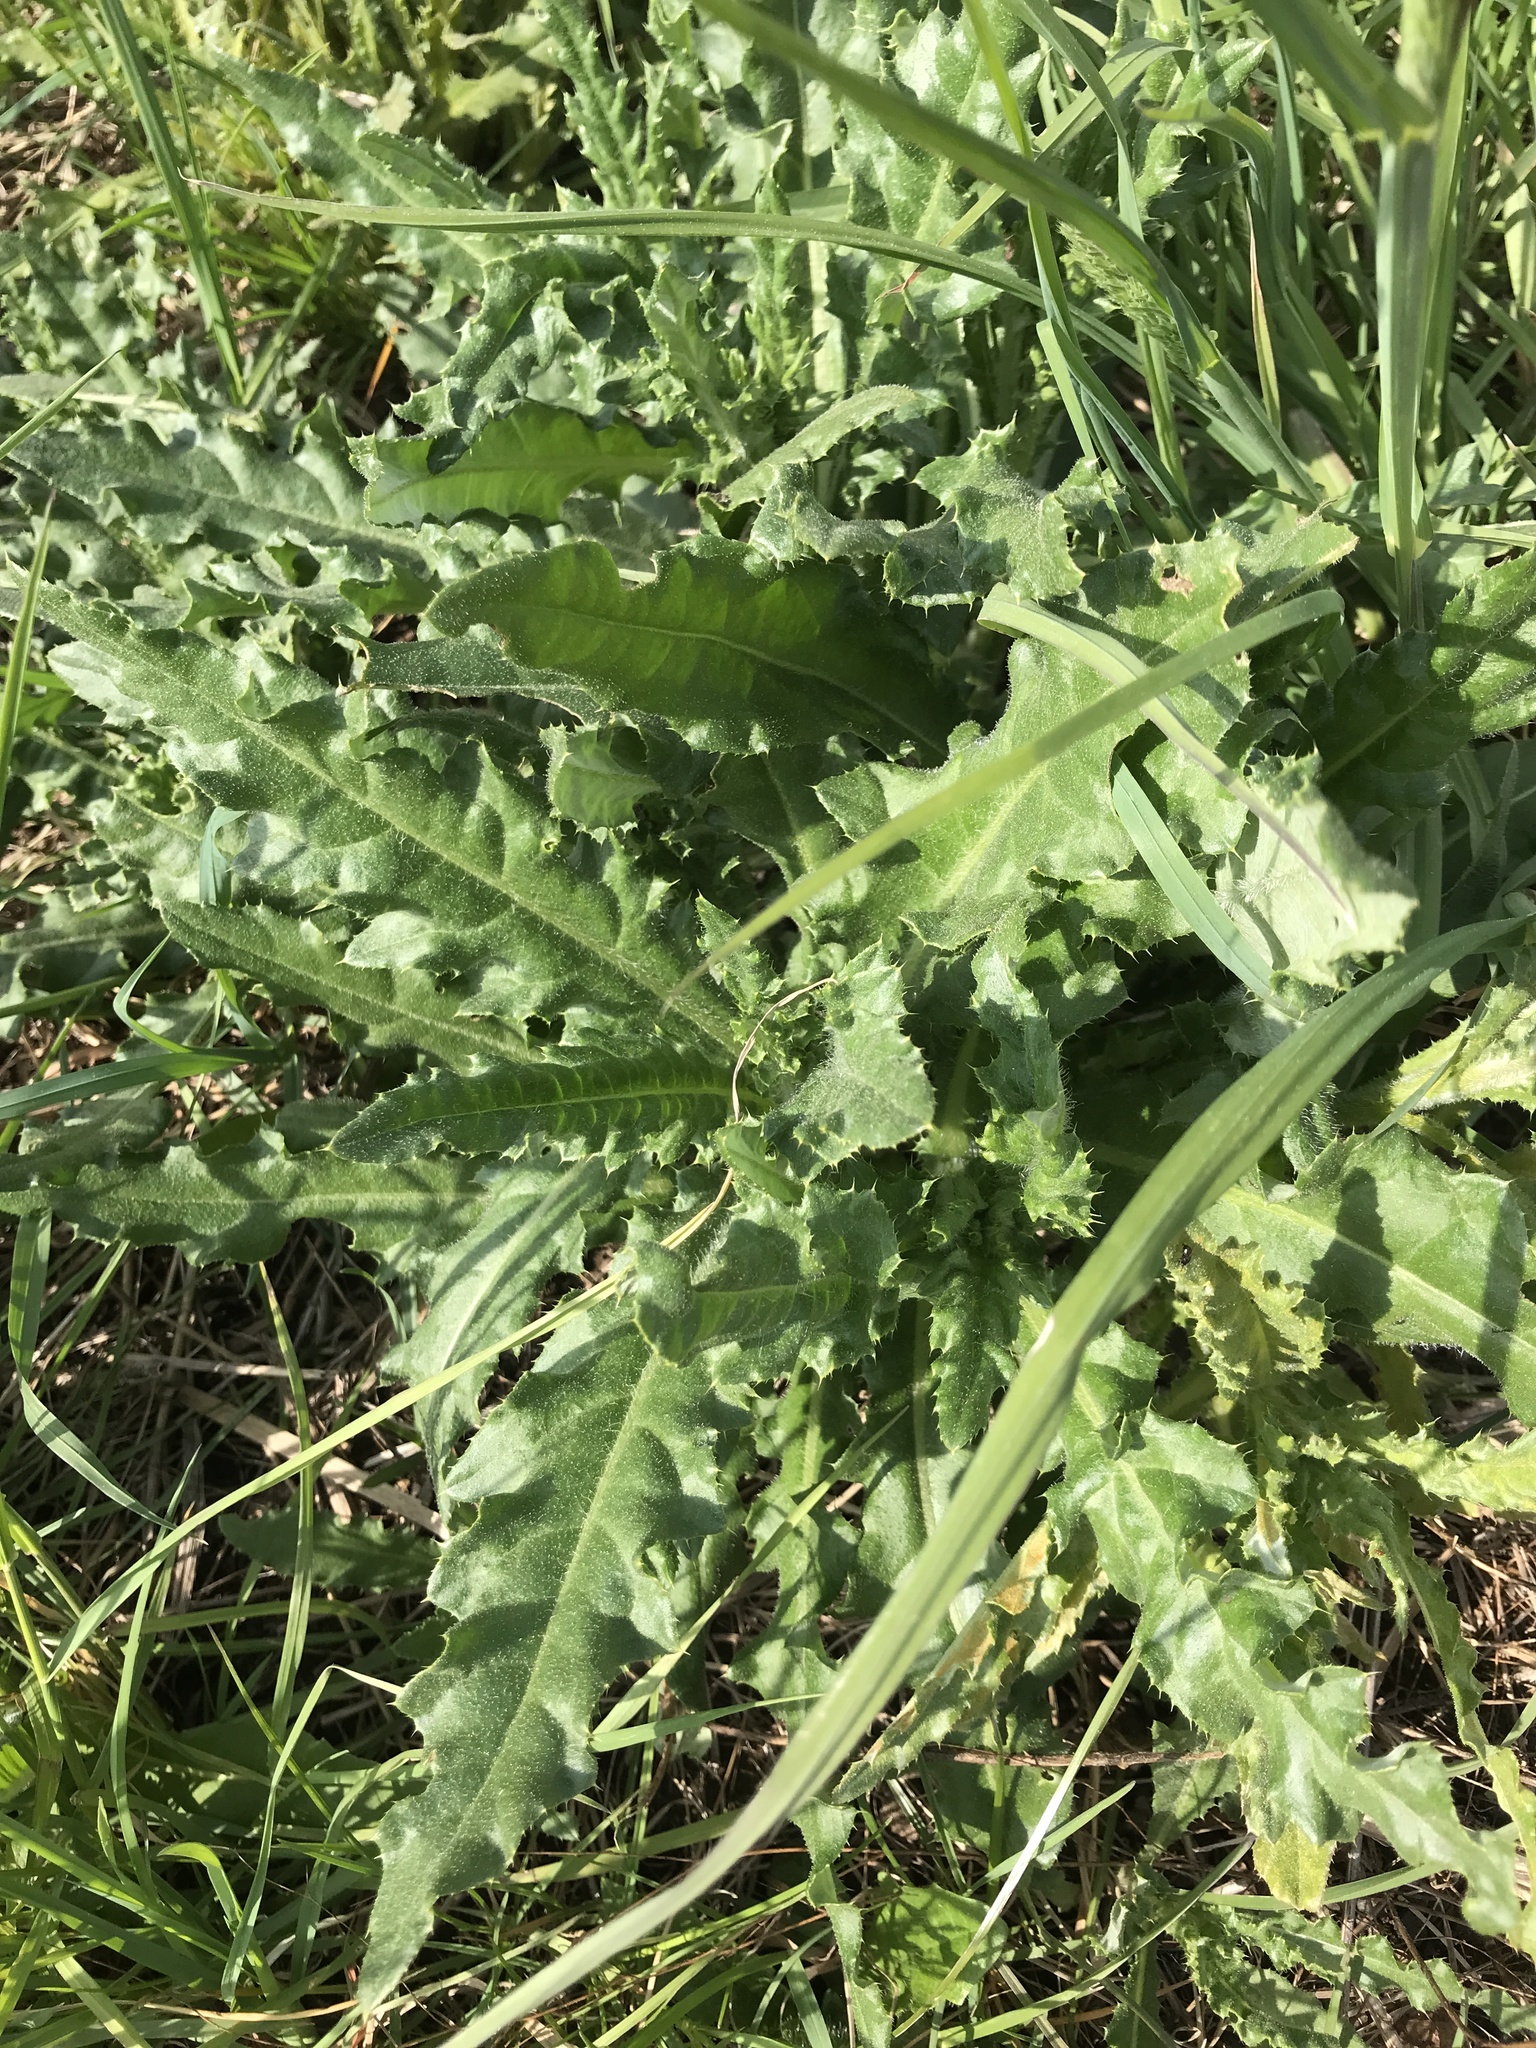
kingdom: Plantae
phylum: Tracheophyta
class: Magnoliopsida
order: Asterales
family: Asteraceae
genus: Cirsium
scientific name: Cirsium arvense
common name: Creeping thistle
